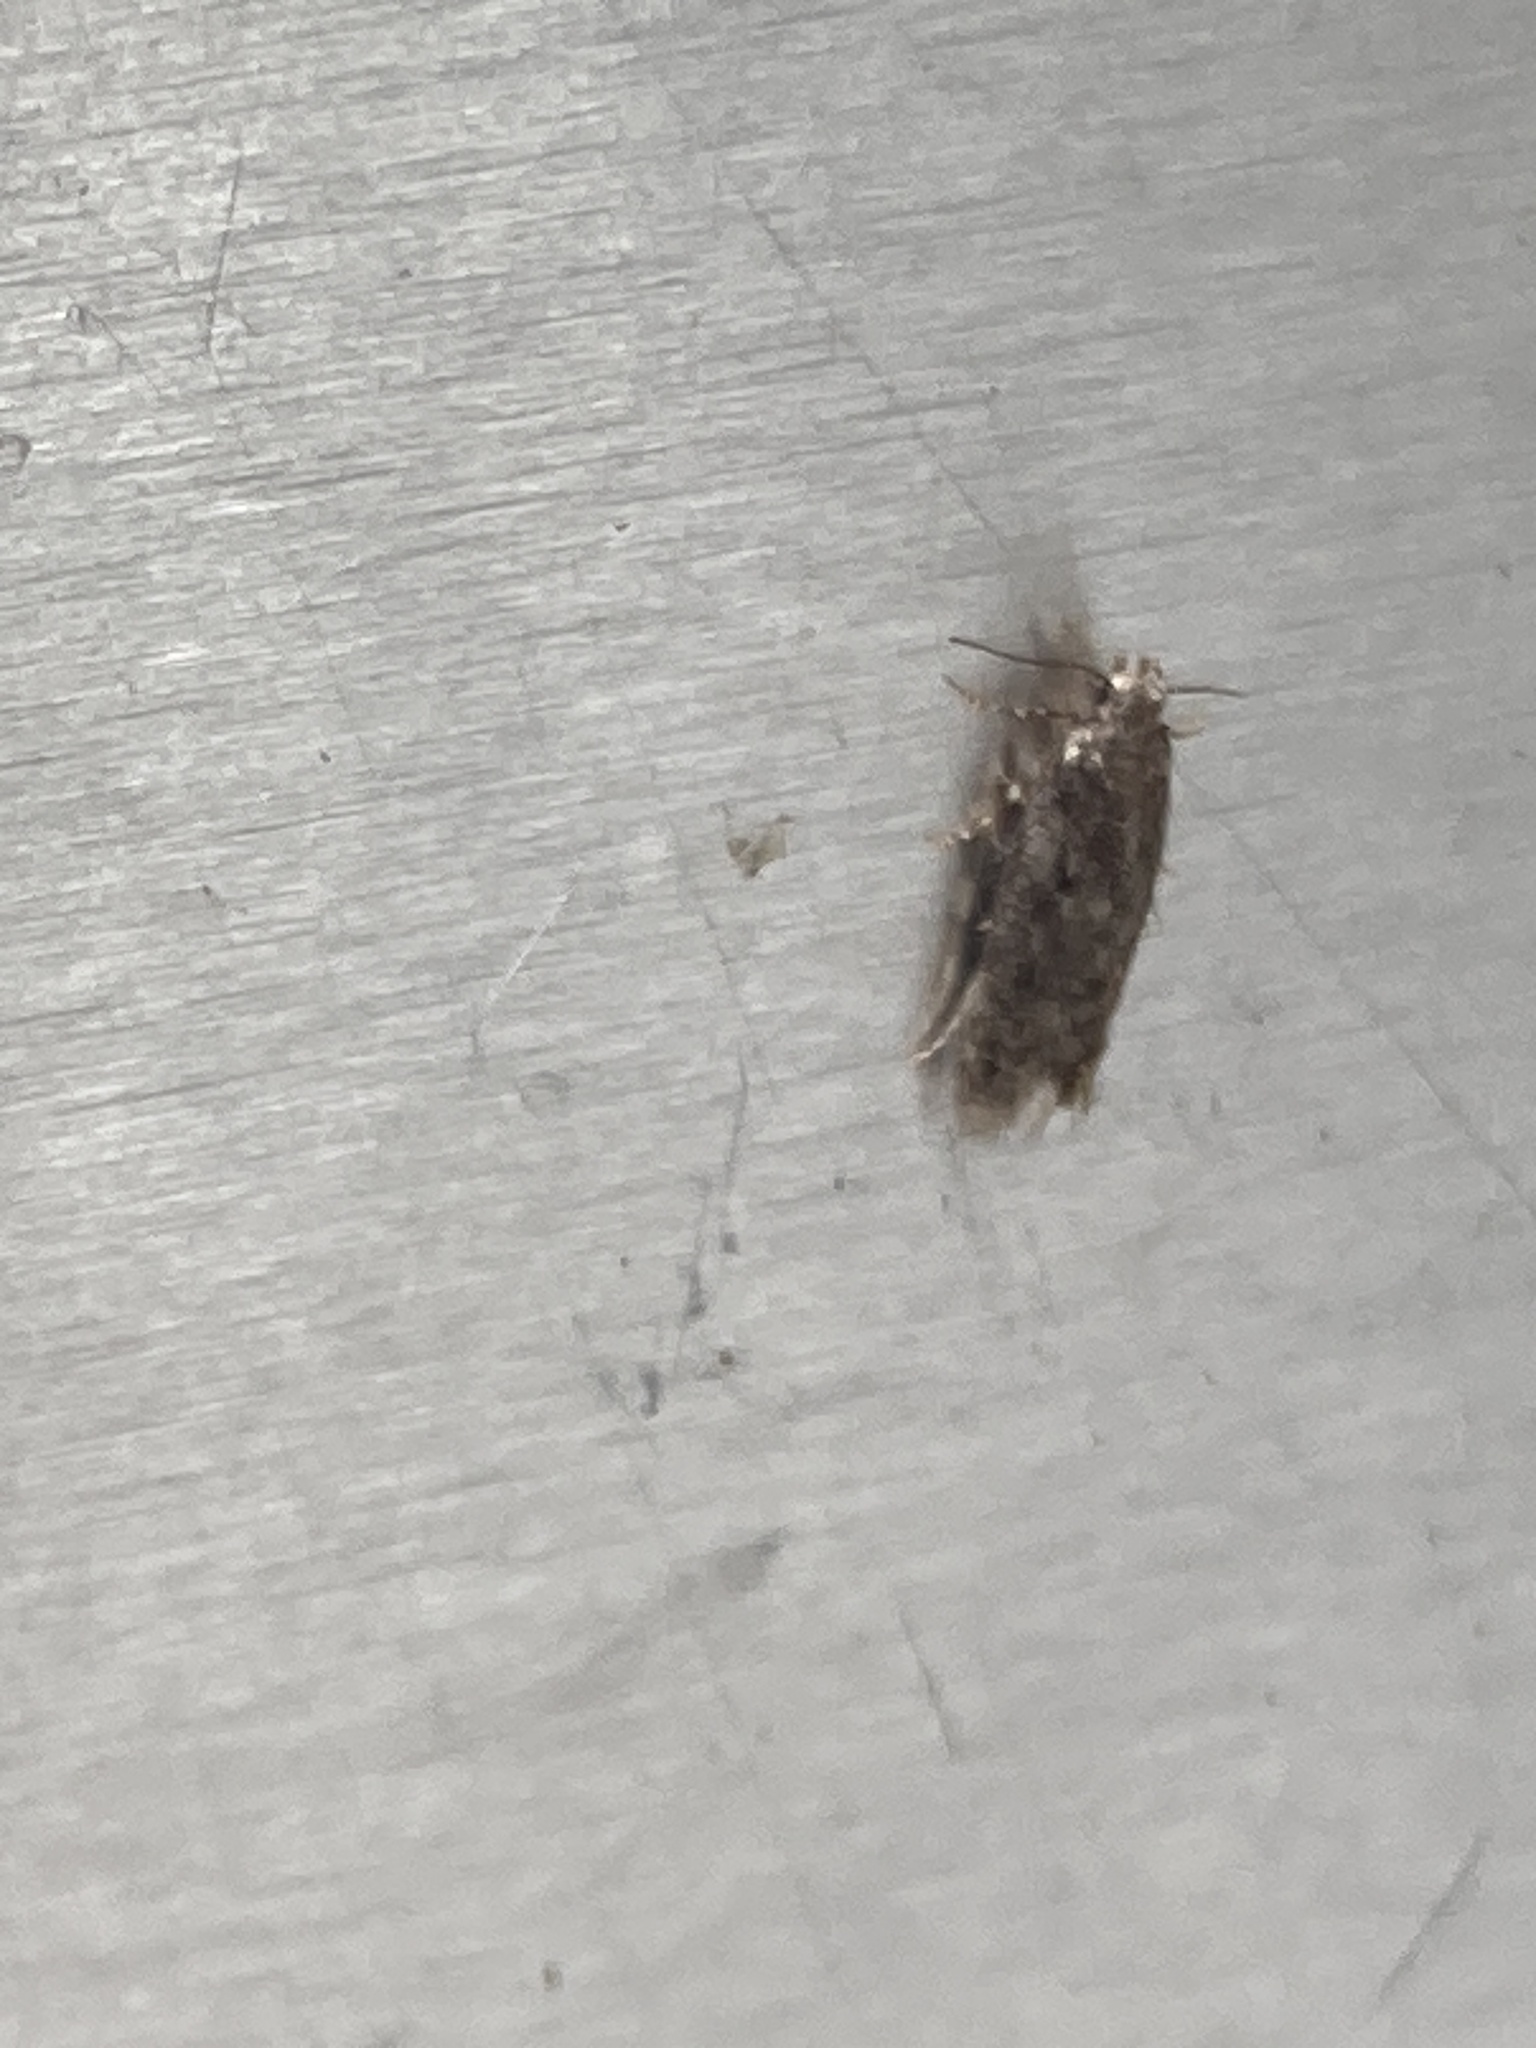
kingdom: Animalia
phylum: Arthropoda
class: Insecta
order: Lepidoptera
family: Gelechiidae
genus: Bryotropha
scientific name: Bryotropha affinis
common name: Dark groundling
